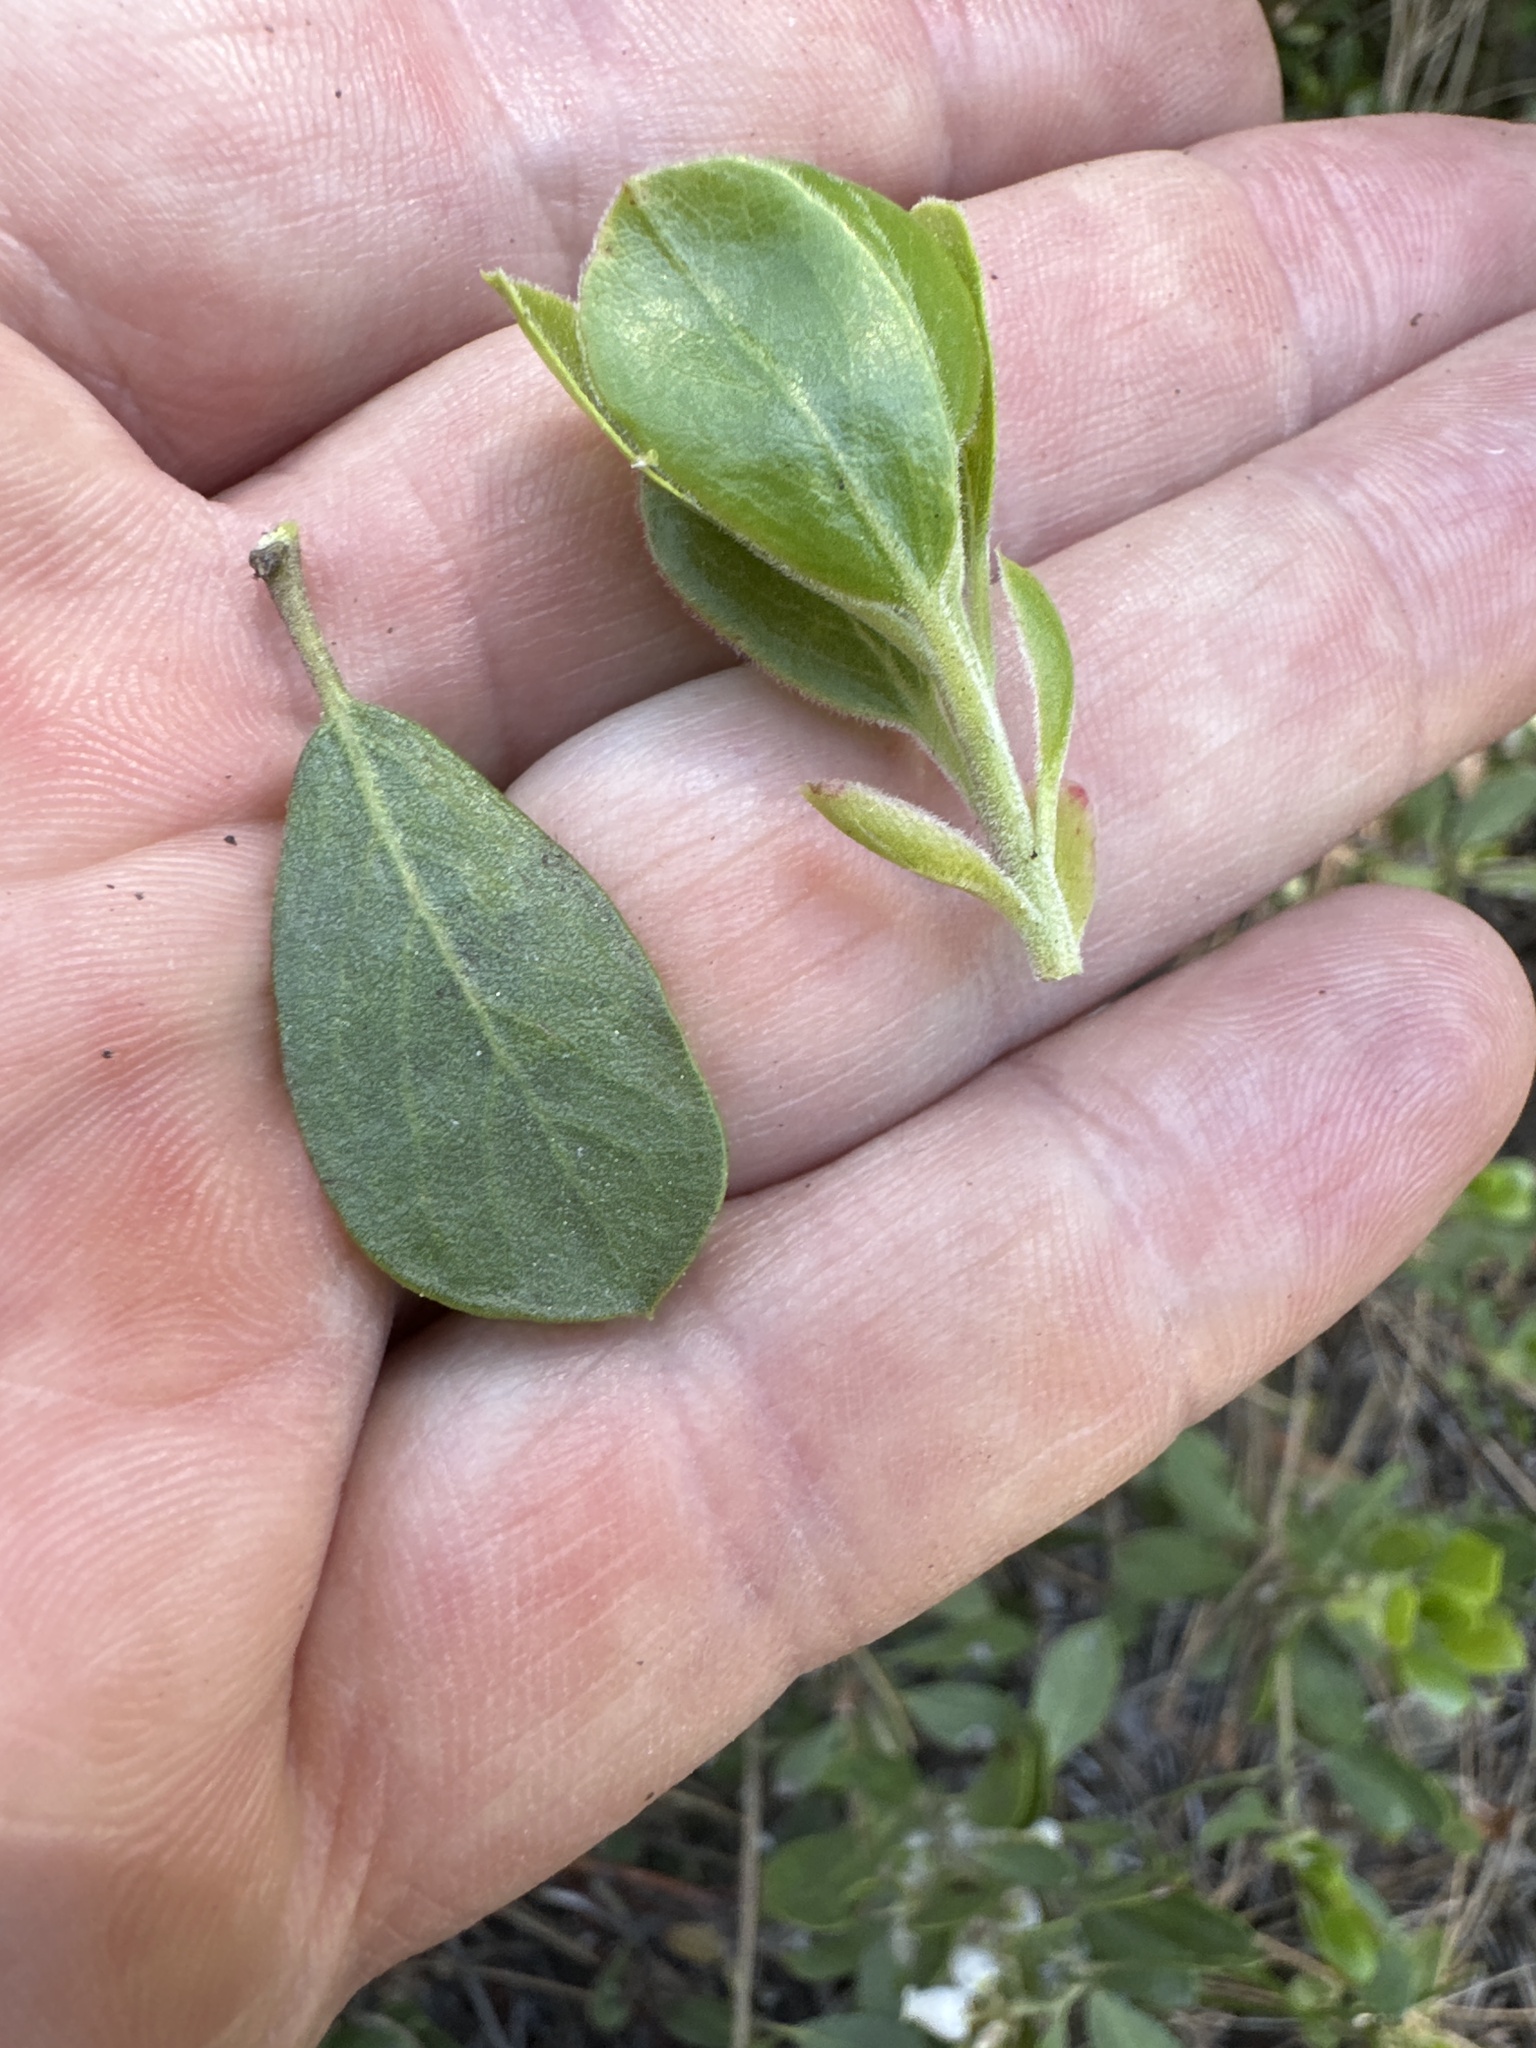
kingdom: Plantae
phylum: Tracheophyta
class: Magnoliopsida
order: Ericales
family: Ericaceae
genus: Arctostaphylos
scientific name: Arctostaphylos nevadensis
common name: Pinemat manzanita
